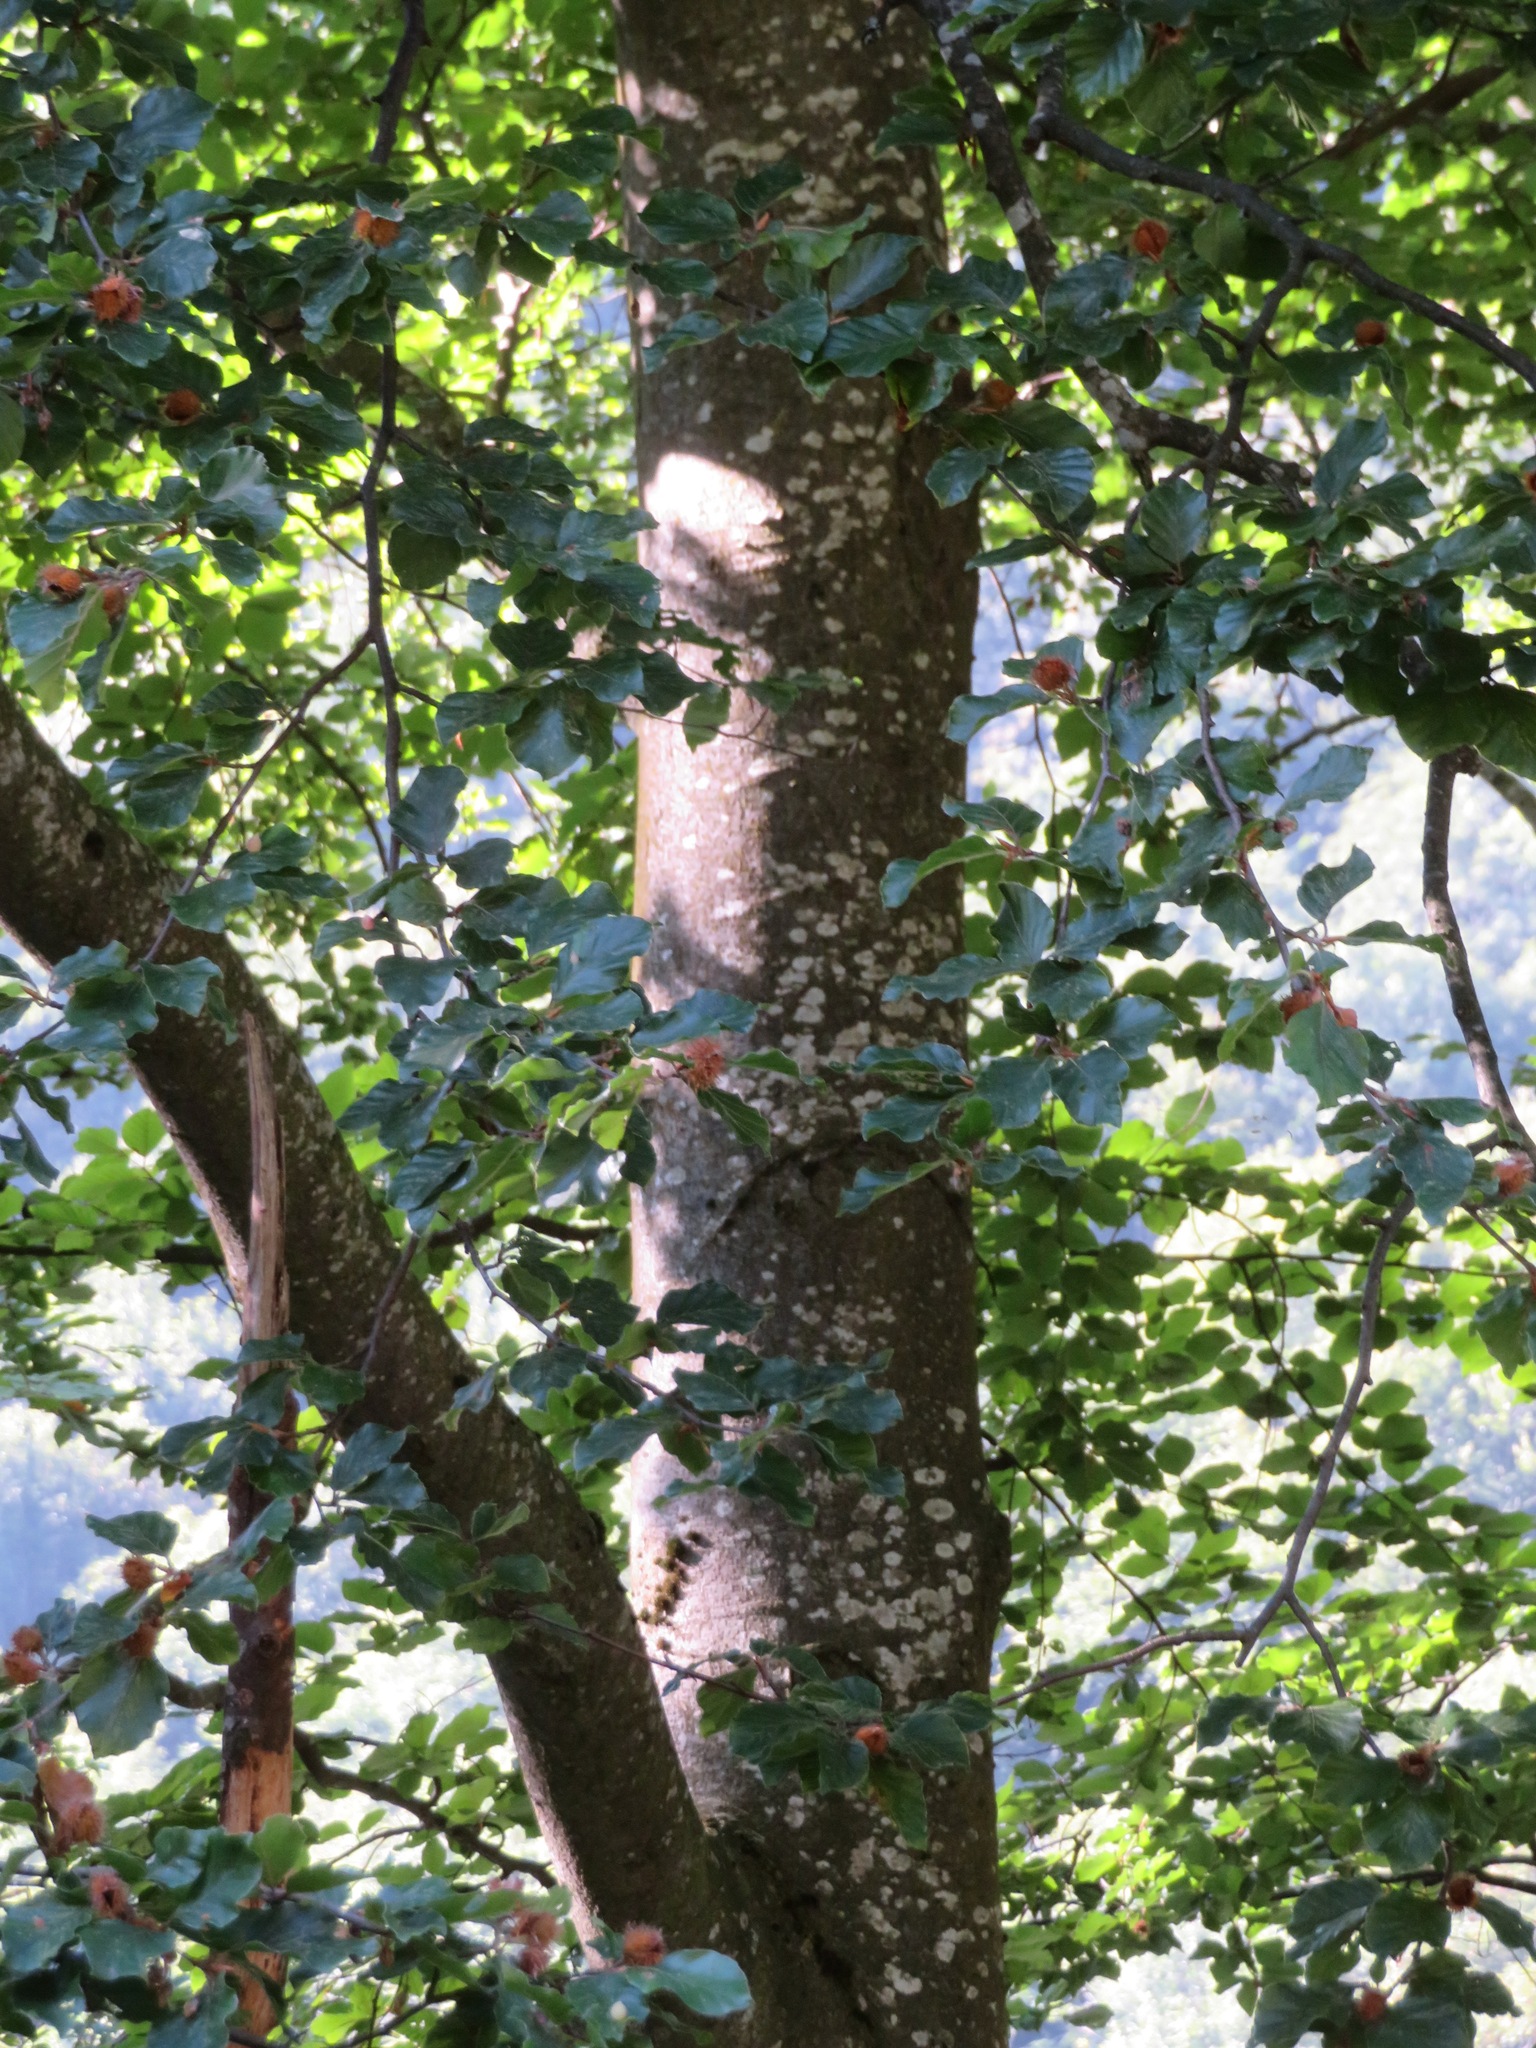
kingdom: Plantae
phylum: Tracheophyta
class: Magnoliopsida
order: Fagales
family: Fagaceae
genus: Fagus
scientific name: Fagus sylvatica
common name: Beech
